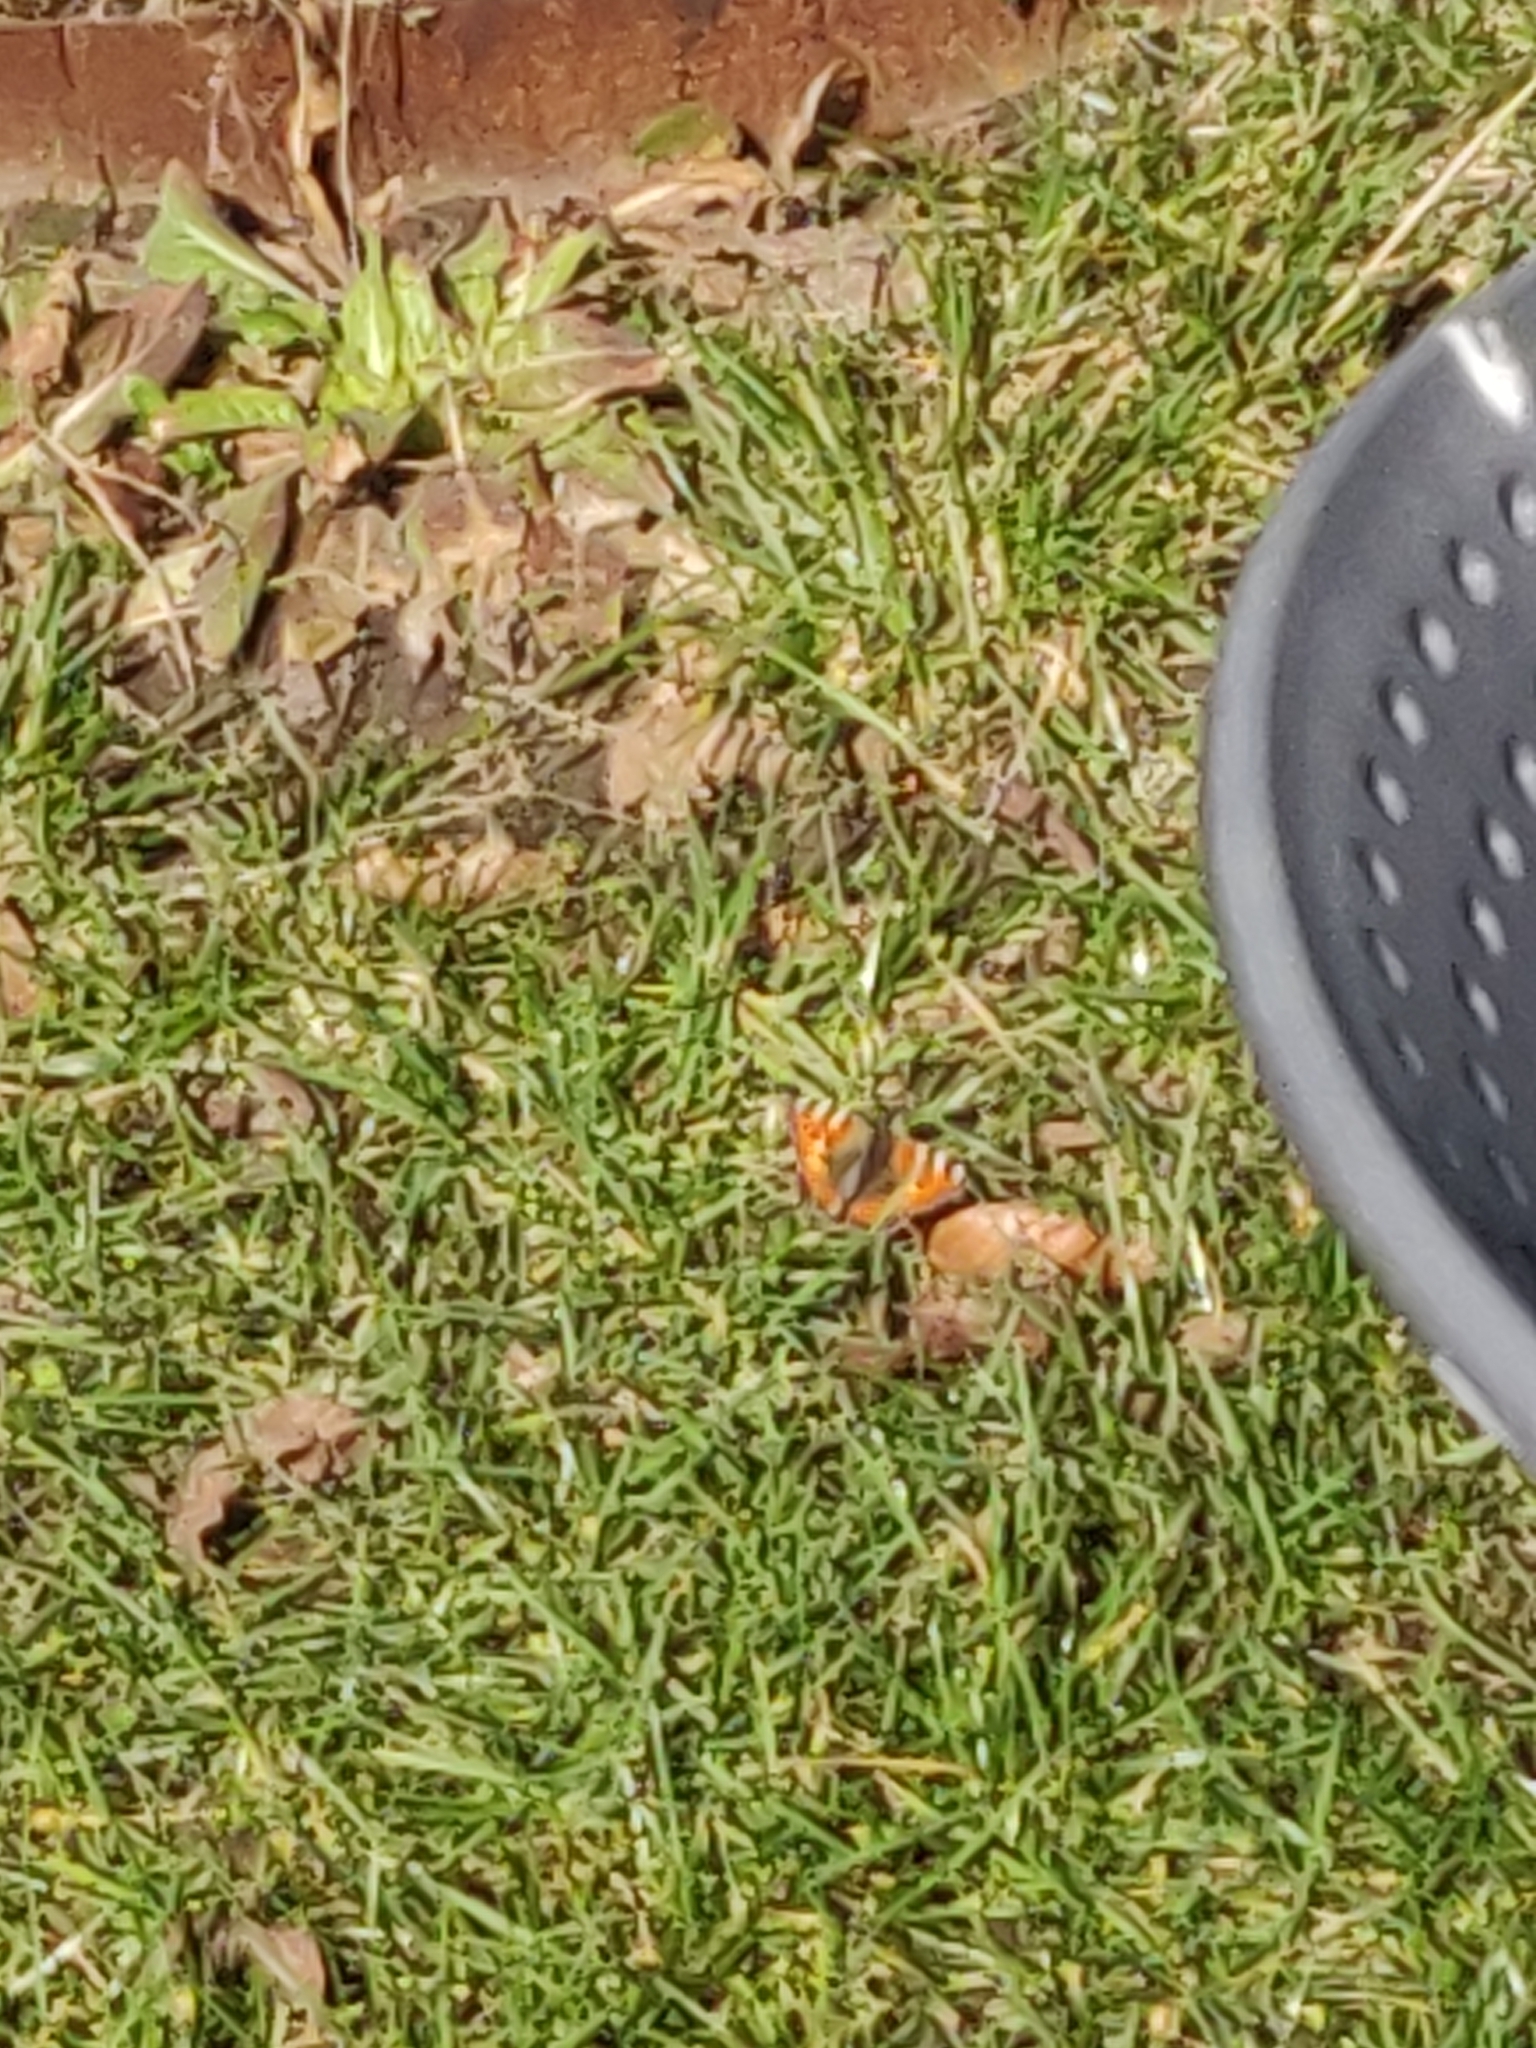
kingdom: Animalia
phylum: Arthropoda
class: Insecta
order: Lepidoptera
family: Nymphalidae
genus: Aglais
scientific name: Aglais urticae
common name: Small tortoiseshell
